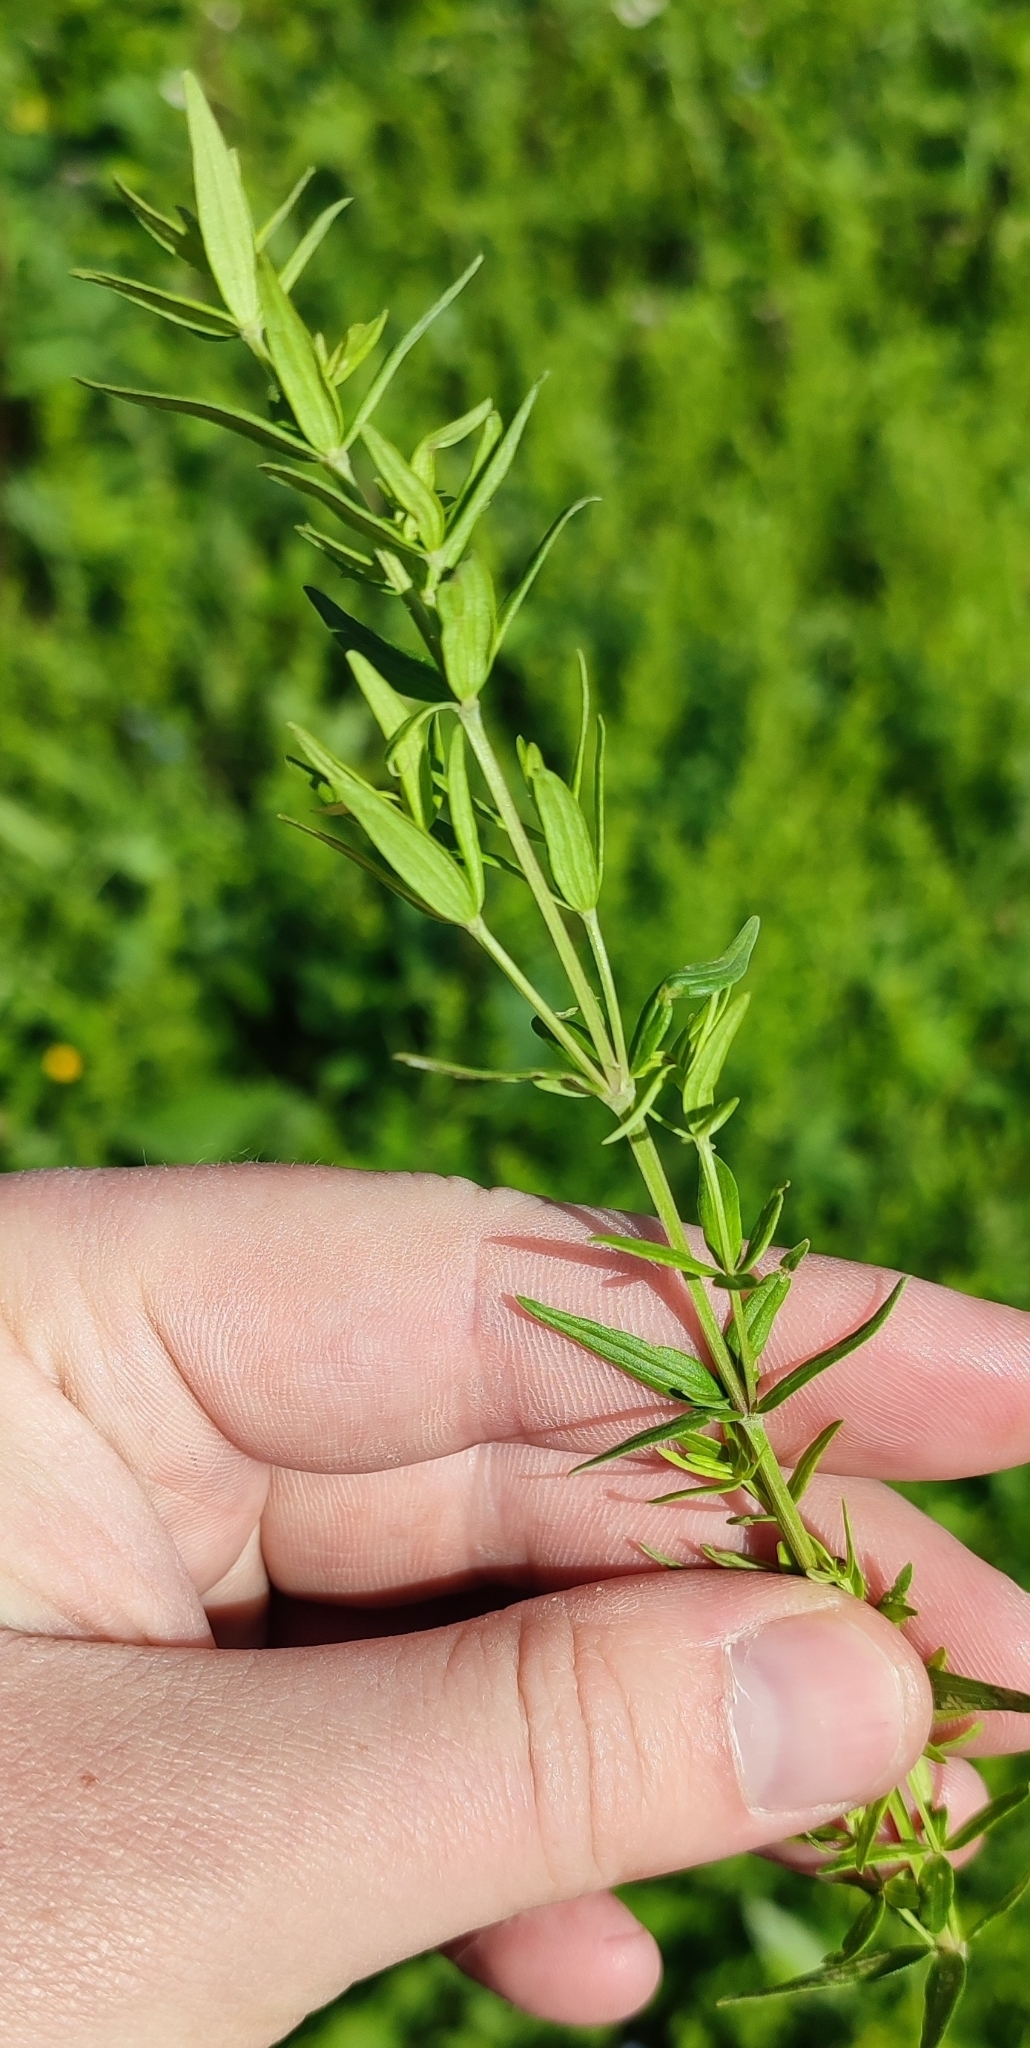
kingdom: Plantae
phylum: Tracheophyta
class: Magnoliopsida
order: Gentianales
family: Rubiaceae
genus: Galium
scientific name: Galium boreale
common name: Northern bedstraw
